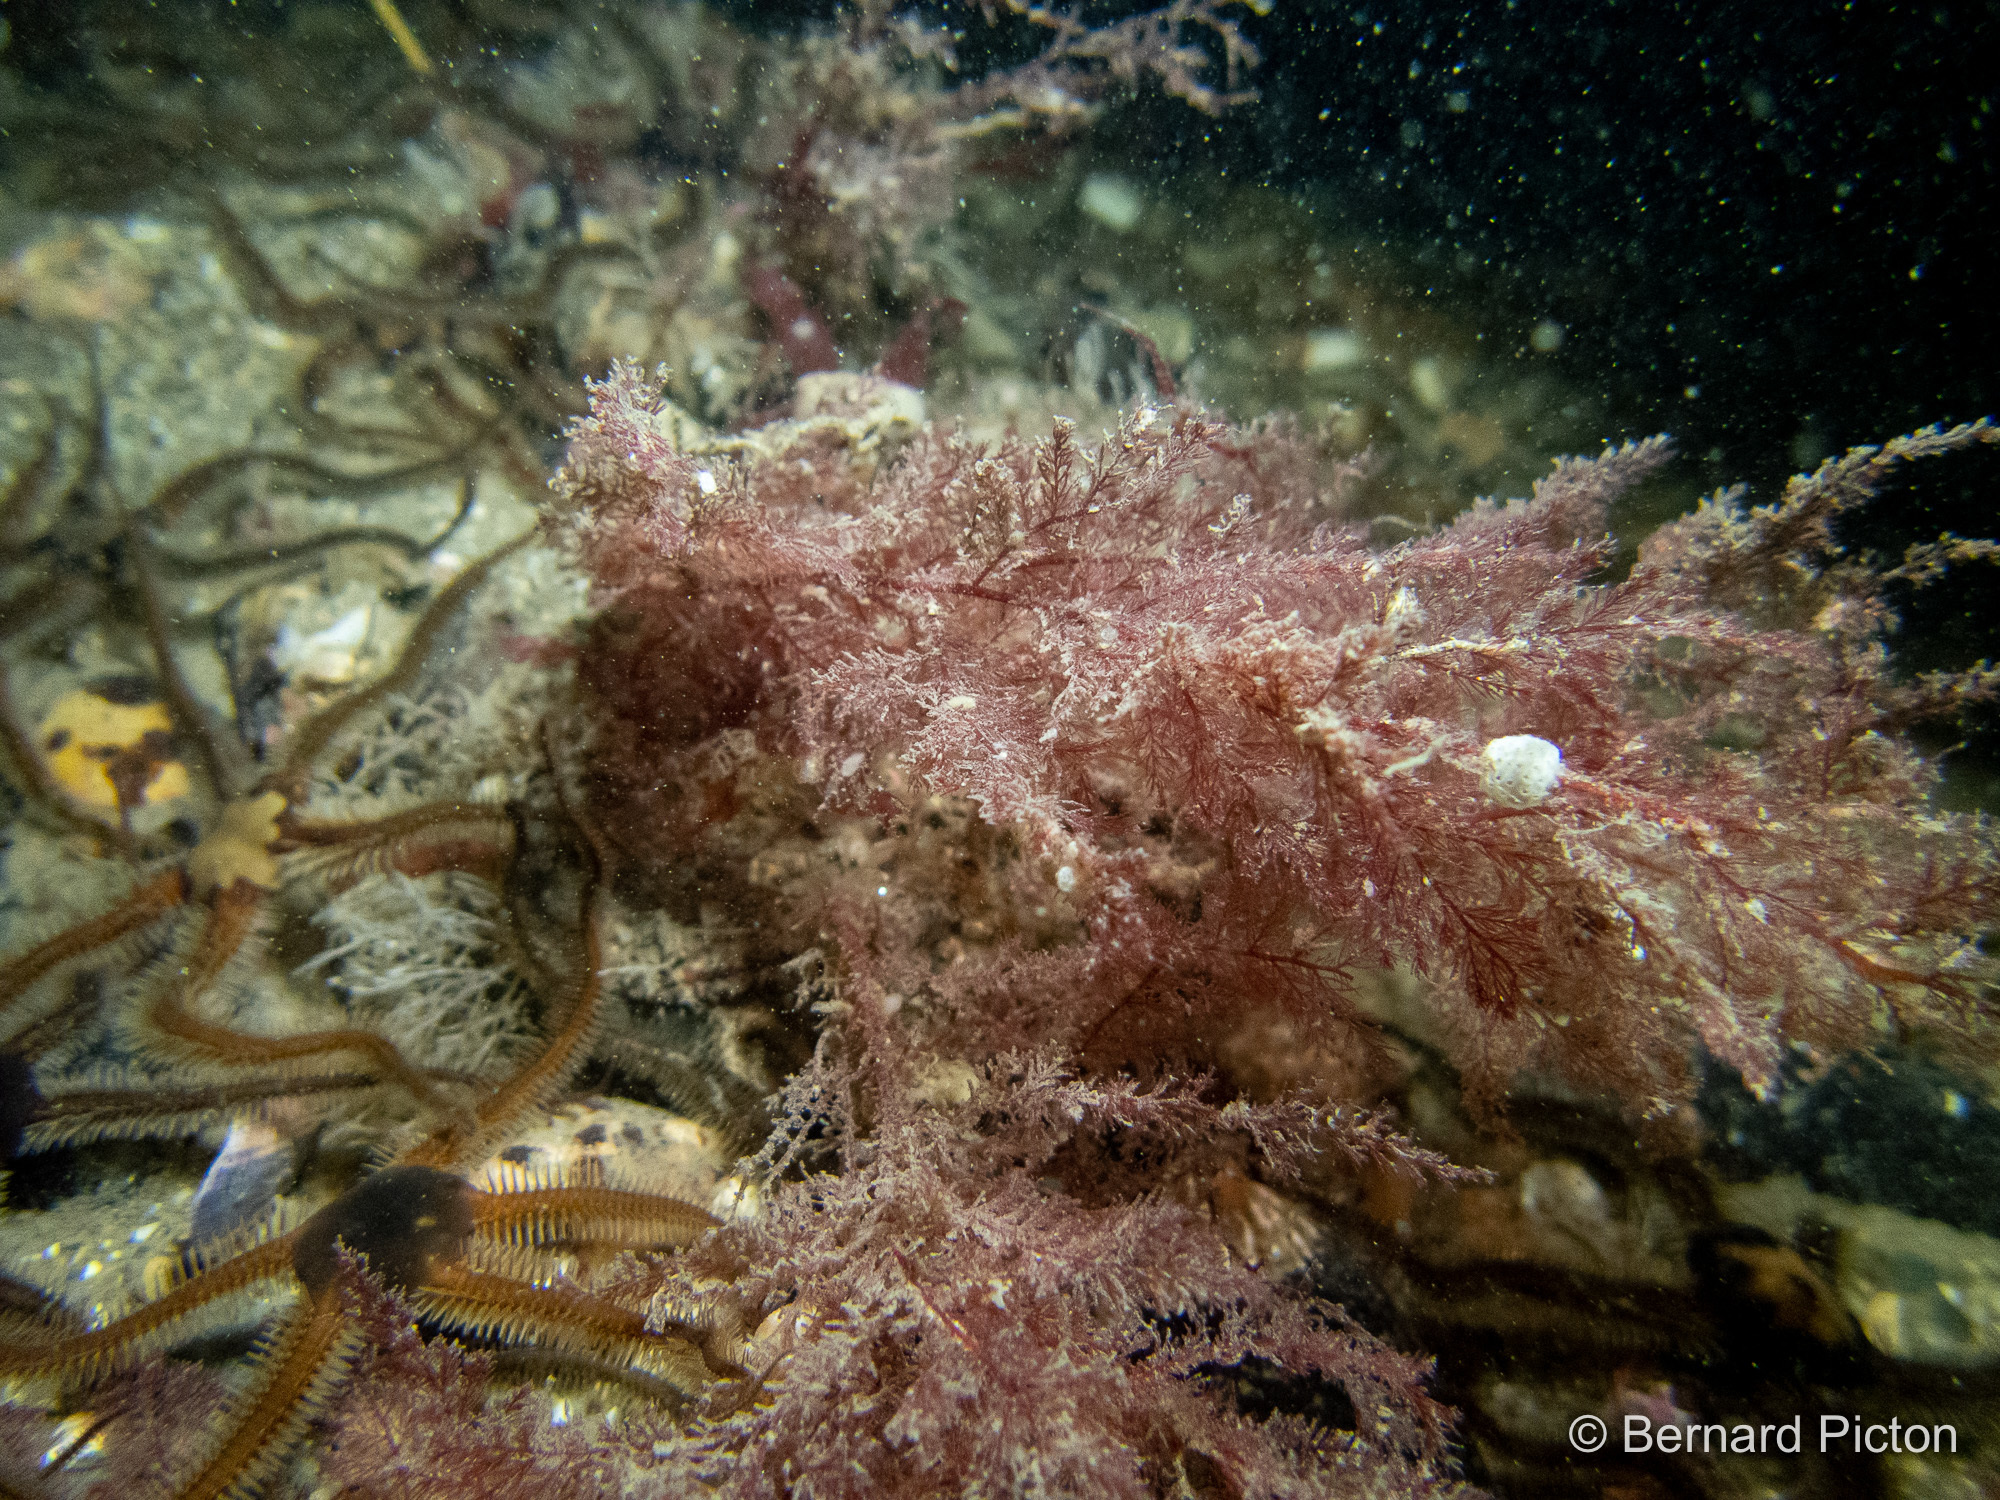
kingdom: Plantae
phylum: Rhodophyta
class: Florideophyceae
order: Ceramiales
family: Dasyaceae
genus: Heterosiphonia
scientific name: Heterosiphonia plumosa
